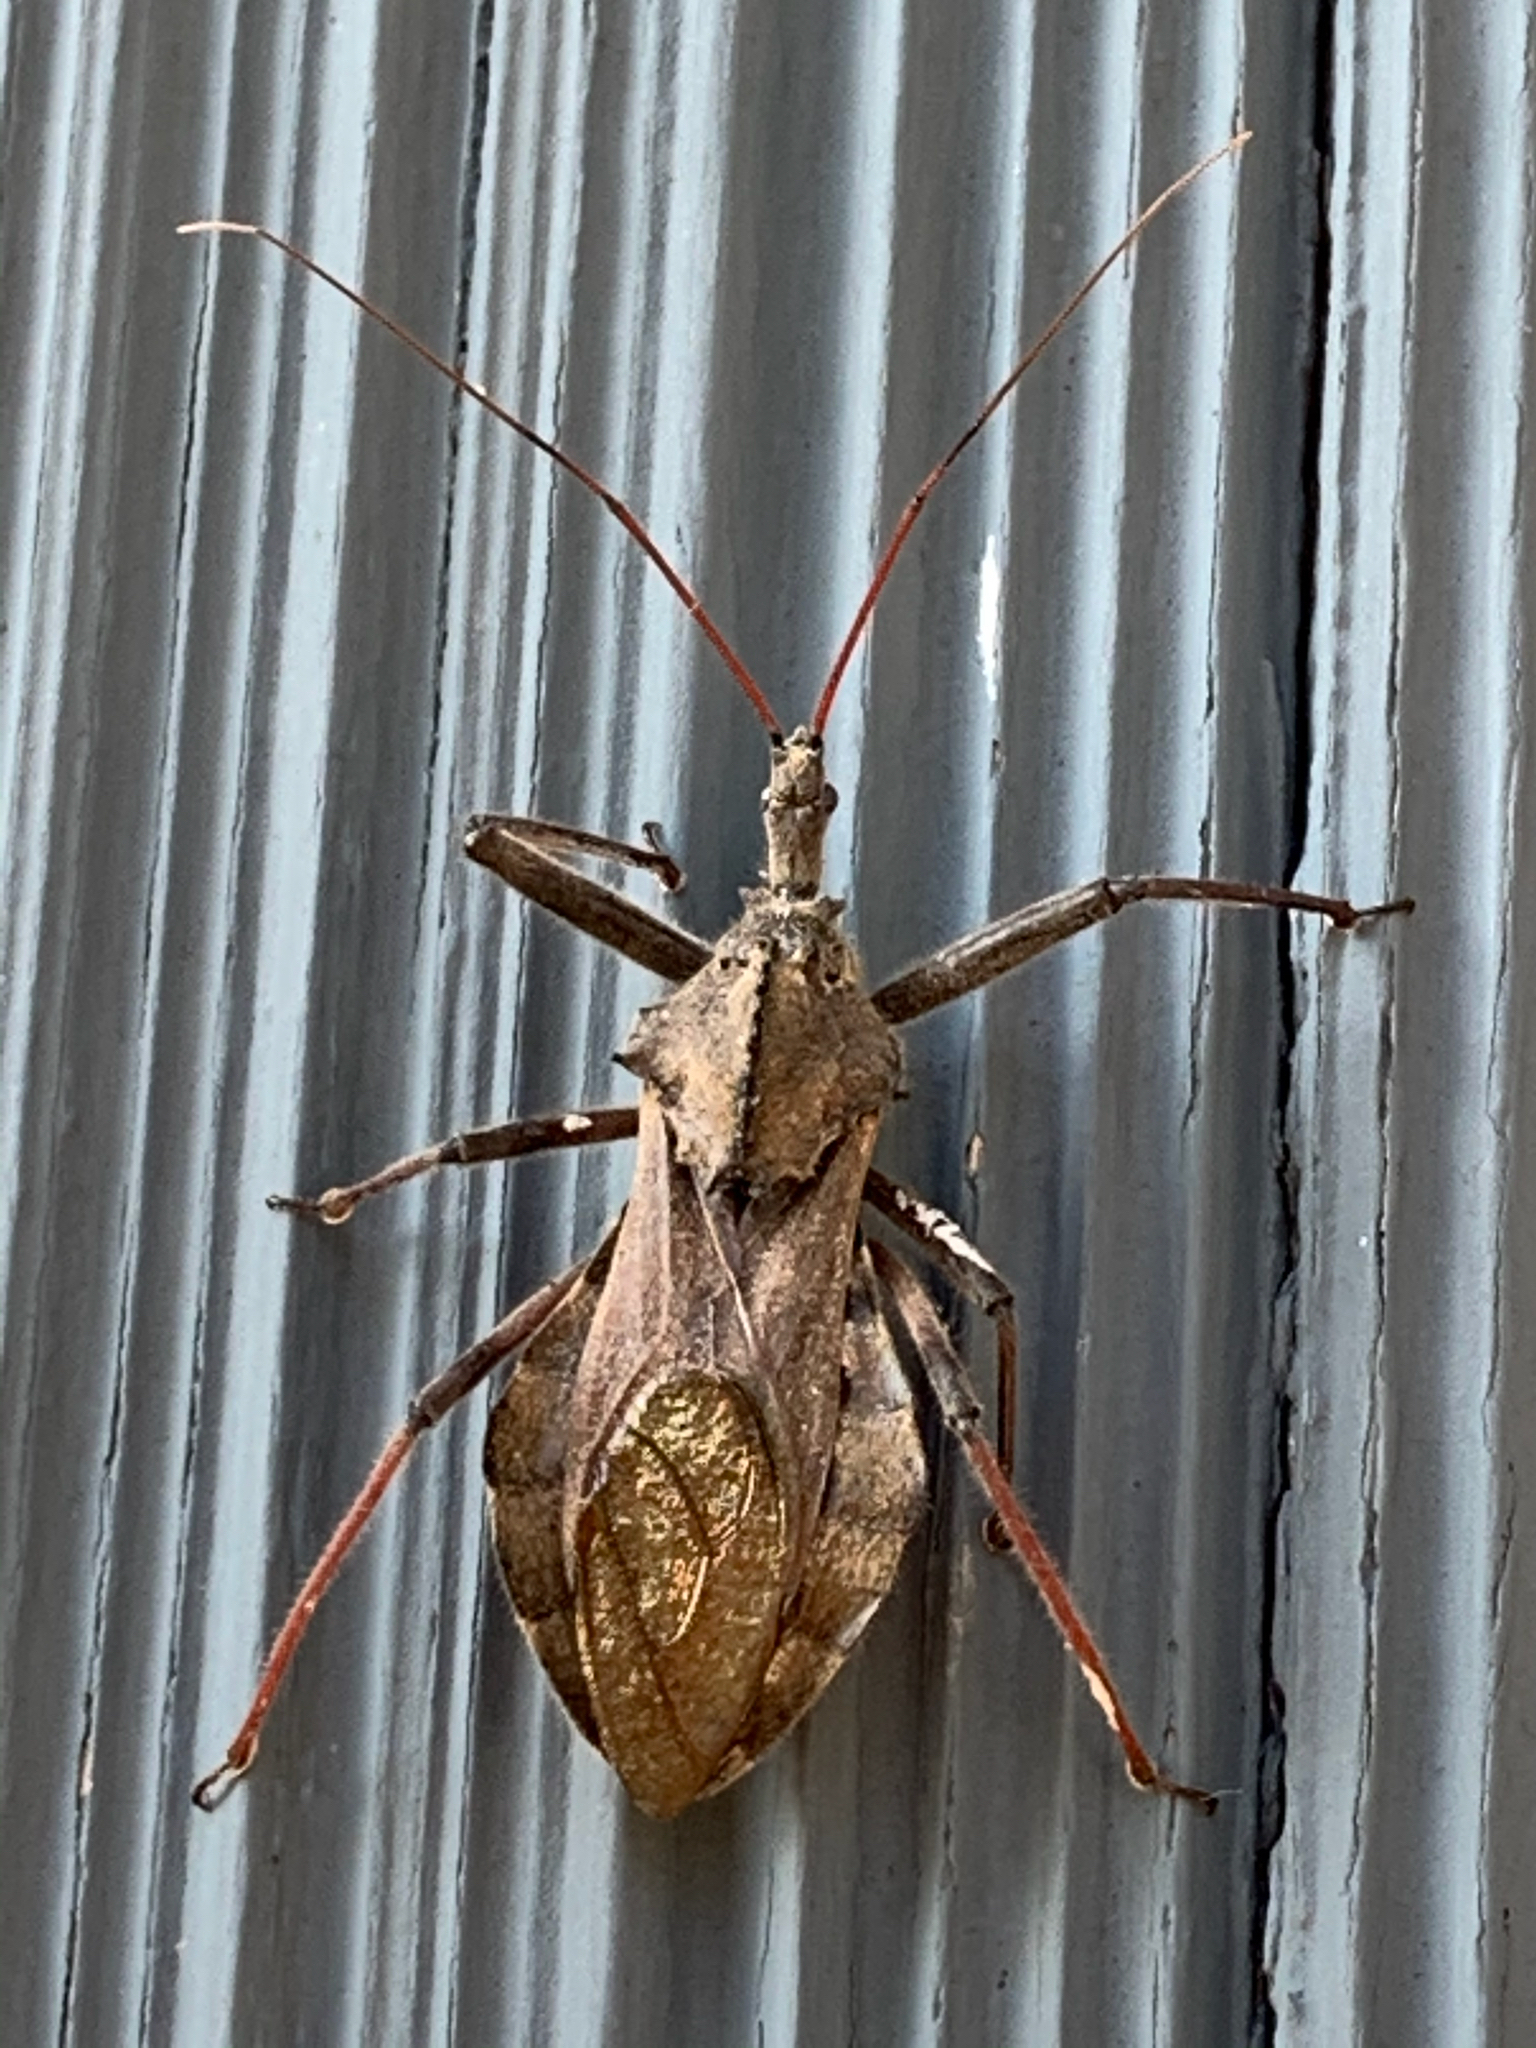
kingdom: Animalia
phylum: Arthropoda
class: Insecta
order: Hemiptera
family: Reduviidae
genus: Arilus
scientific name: Arilus cristatus
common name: North american wheel bug
